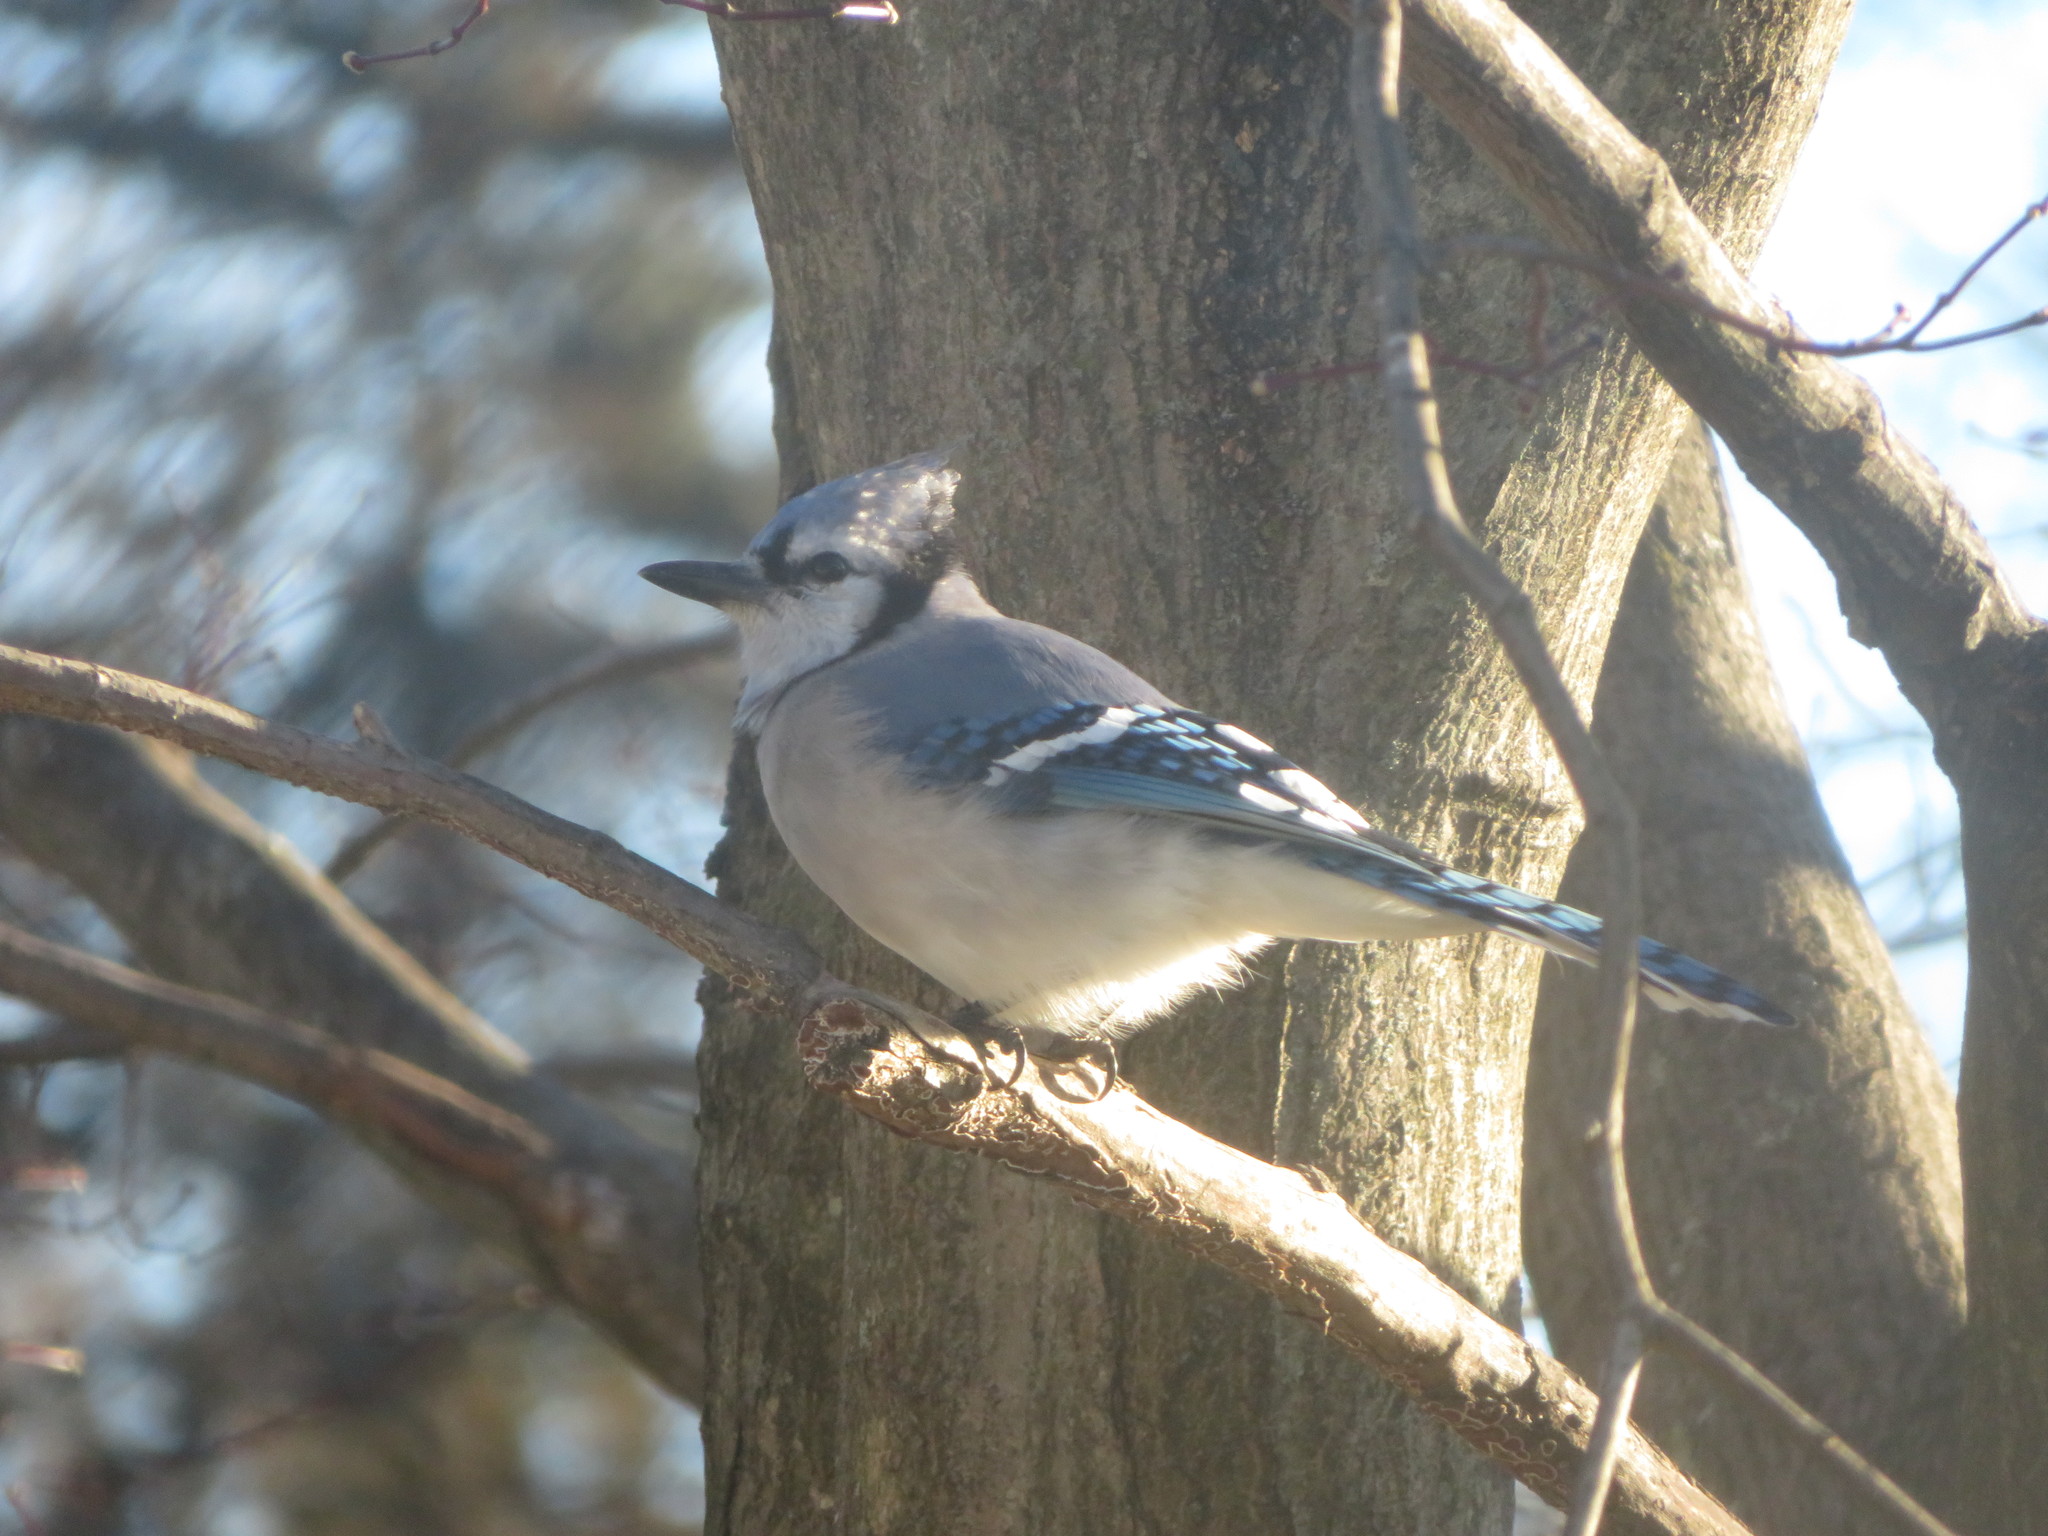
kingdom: Animalia
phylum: Chordata
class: Aves
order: Passeriformes
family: Corvidae
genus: Cyanocitta
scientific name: Cyanocitta cristata
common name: Blue jay
